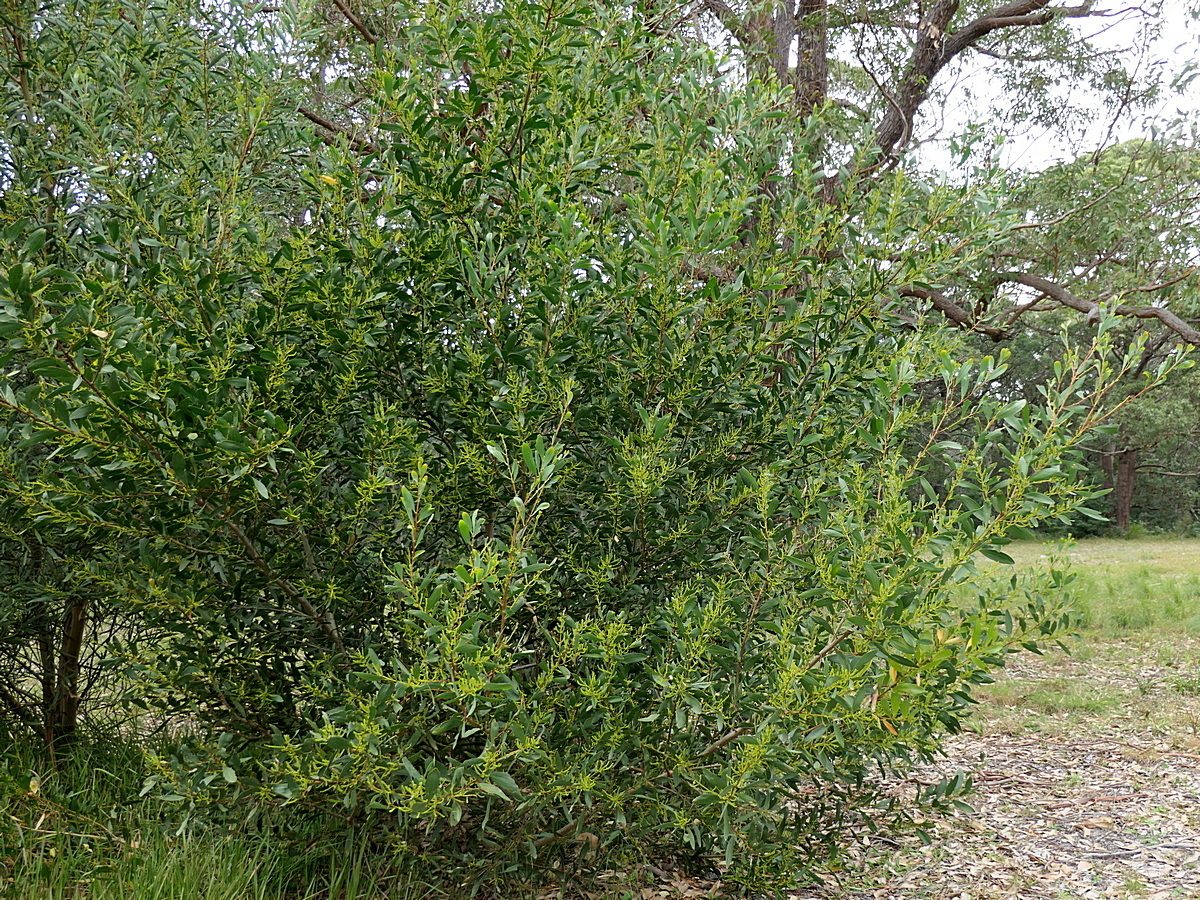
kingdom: Plantae
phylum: Tracheophyta
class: Magnoliopsida
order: Fabales
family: Fabaceae
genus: Acacia
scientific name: Acacia longifolia
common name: Sydney golden wattle
